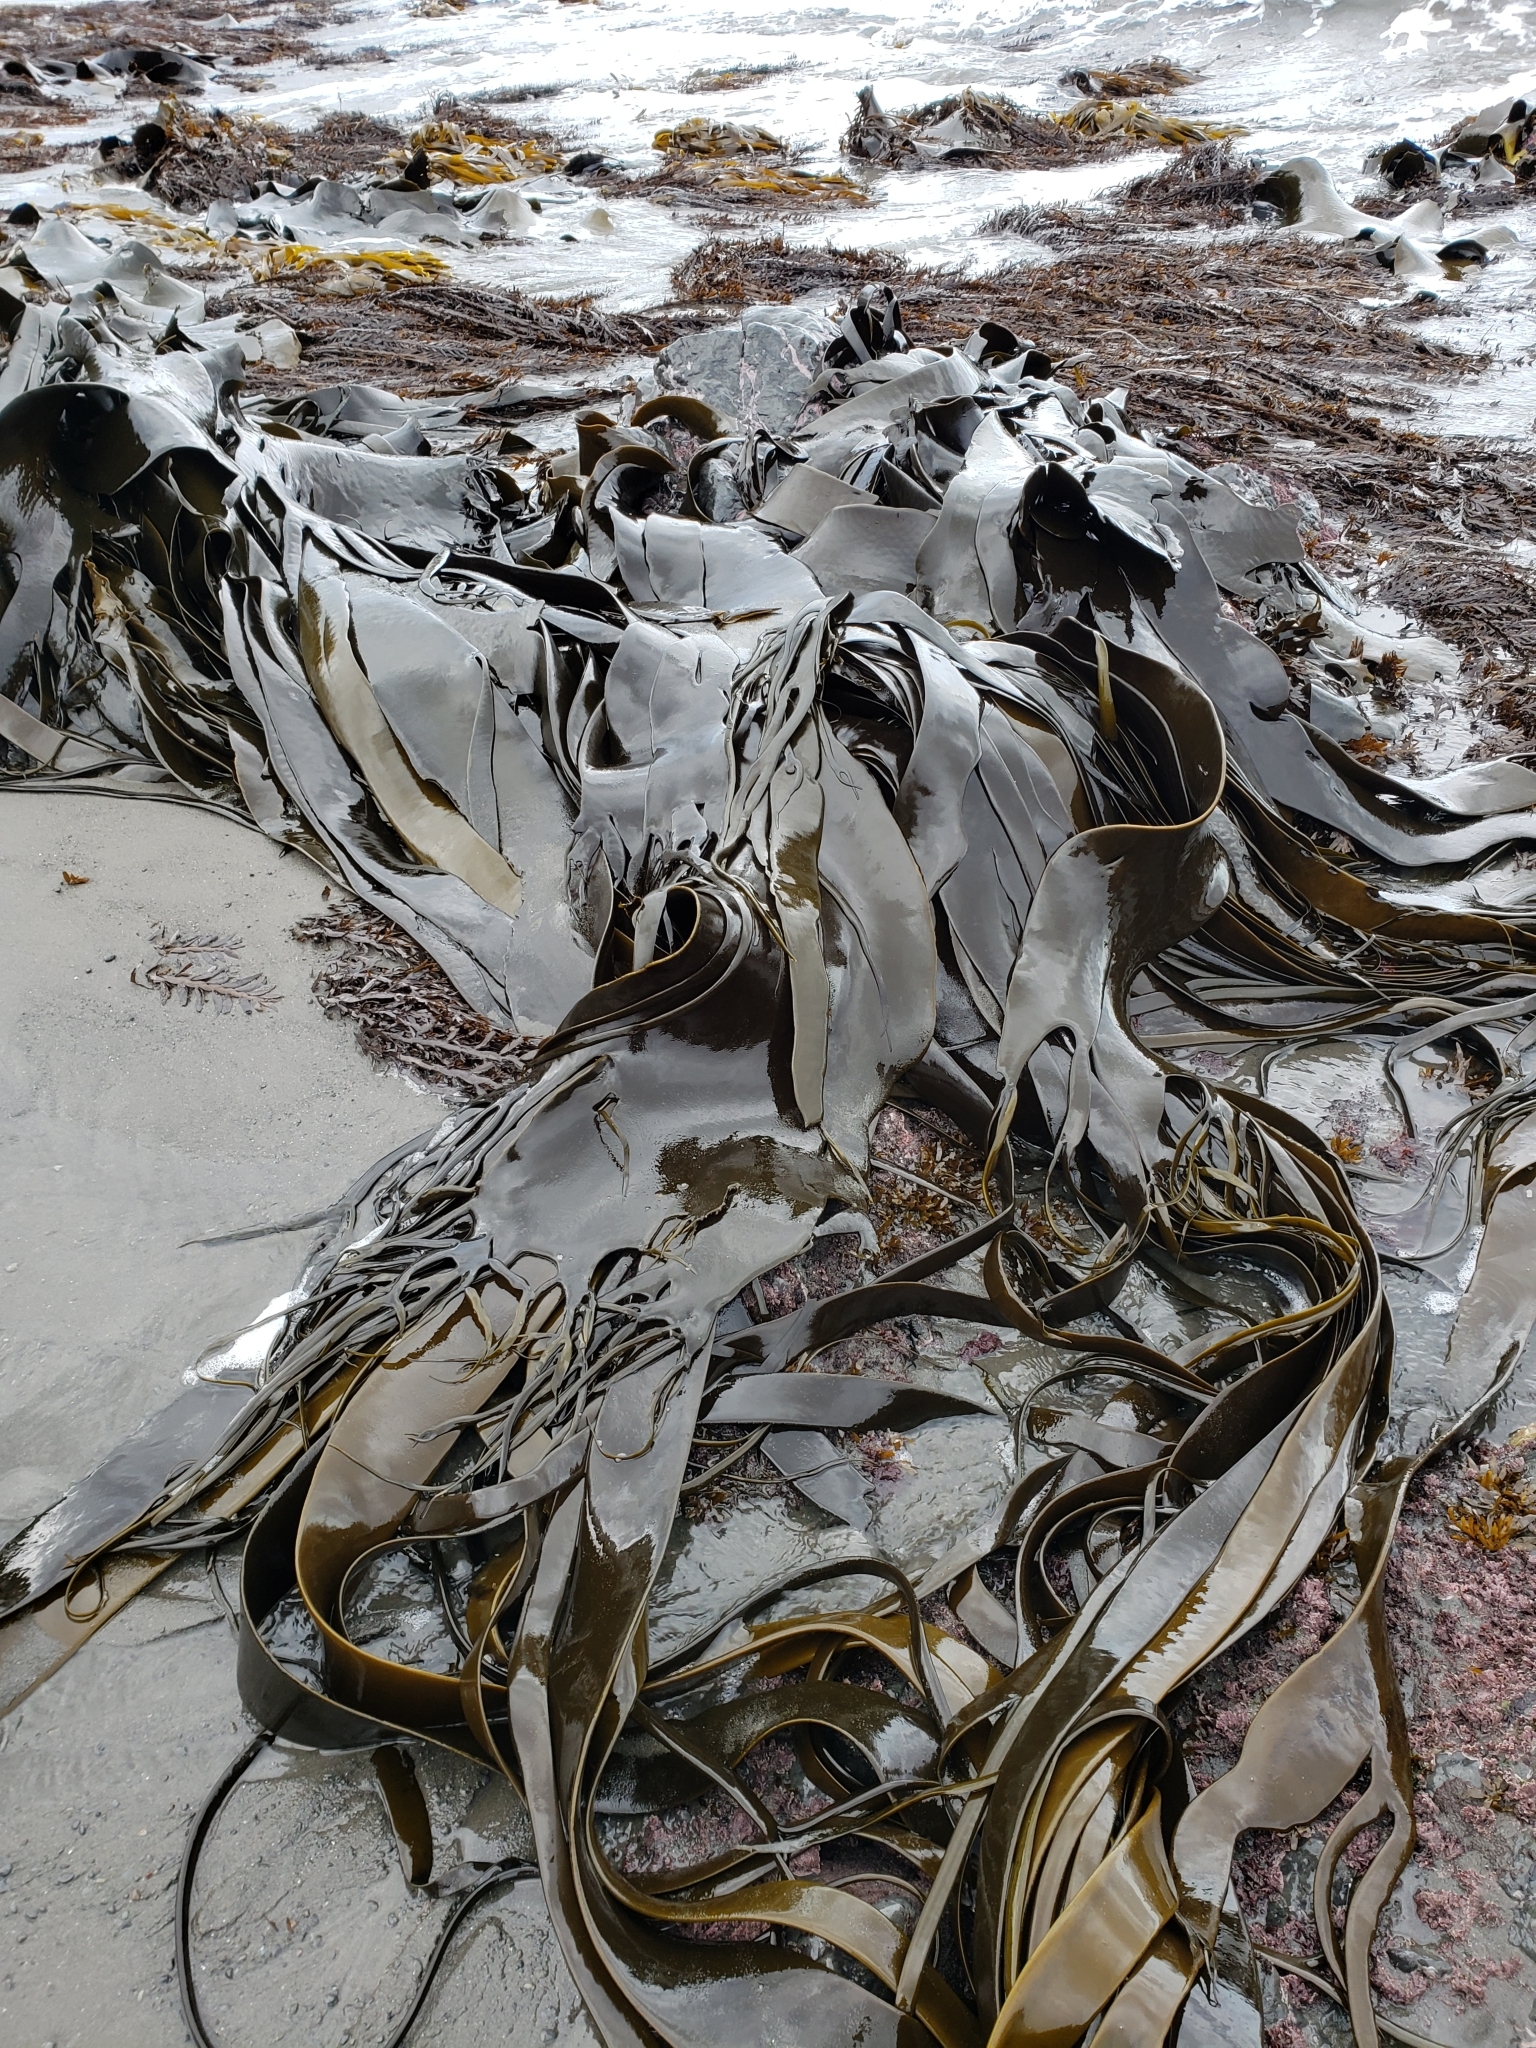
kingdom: Chromista
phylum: Ochrophyta
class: Phaeophyceae
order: Fucales
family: Durvillaeaceae
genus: Durvillaea
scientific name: Durvillaea antarctica
